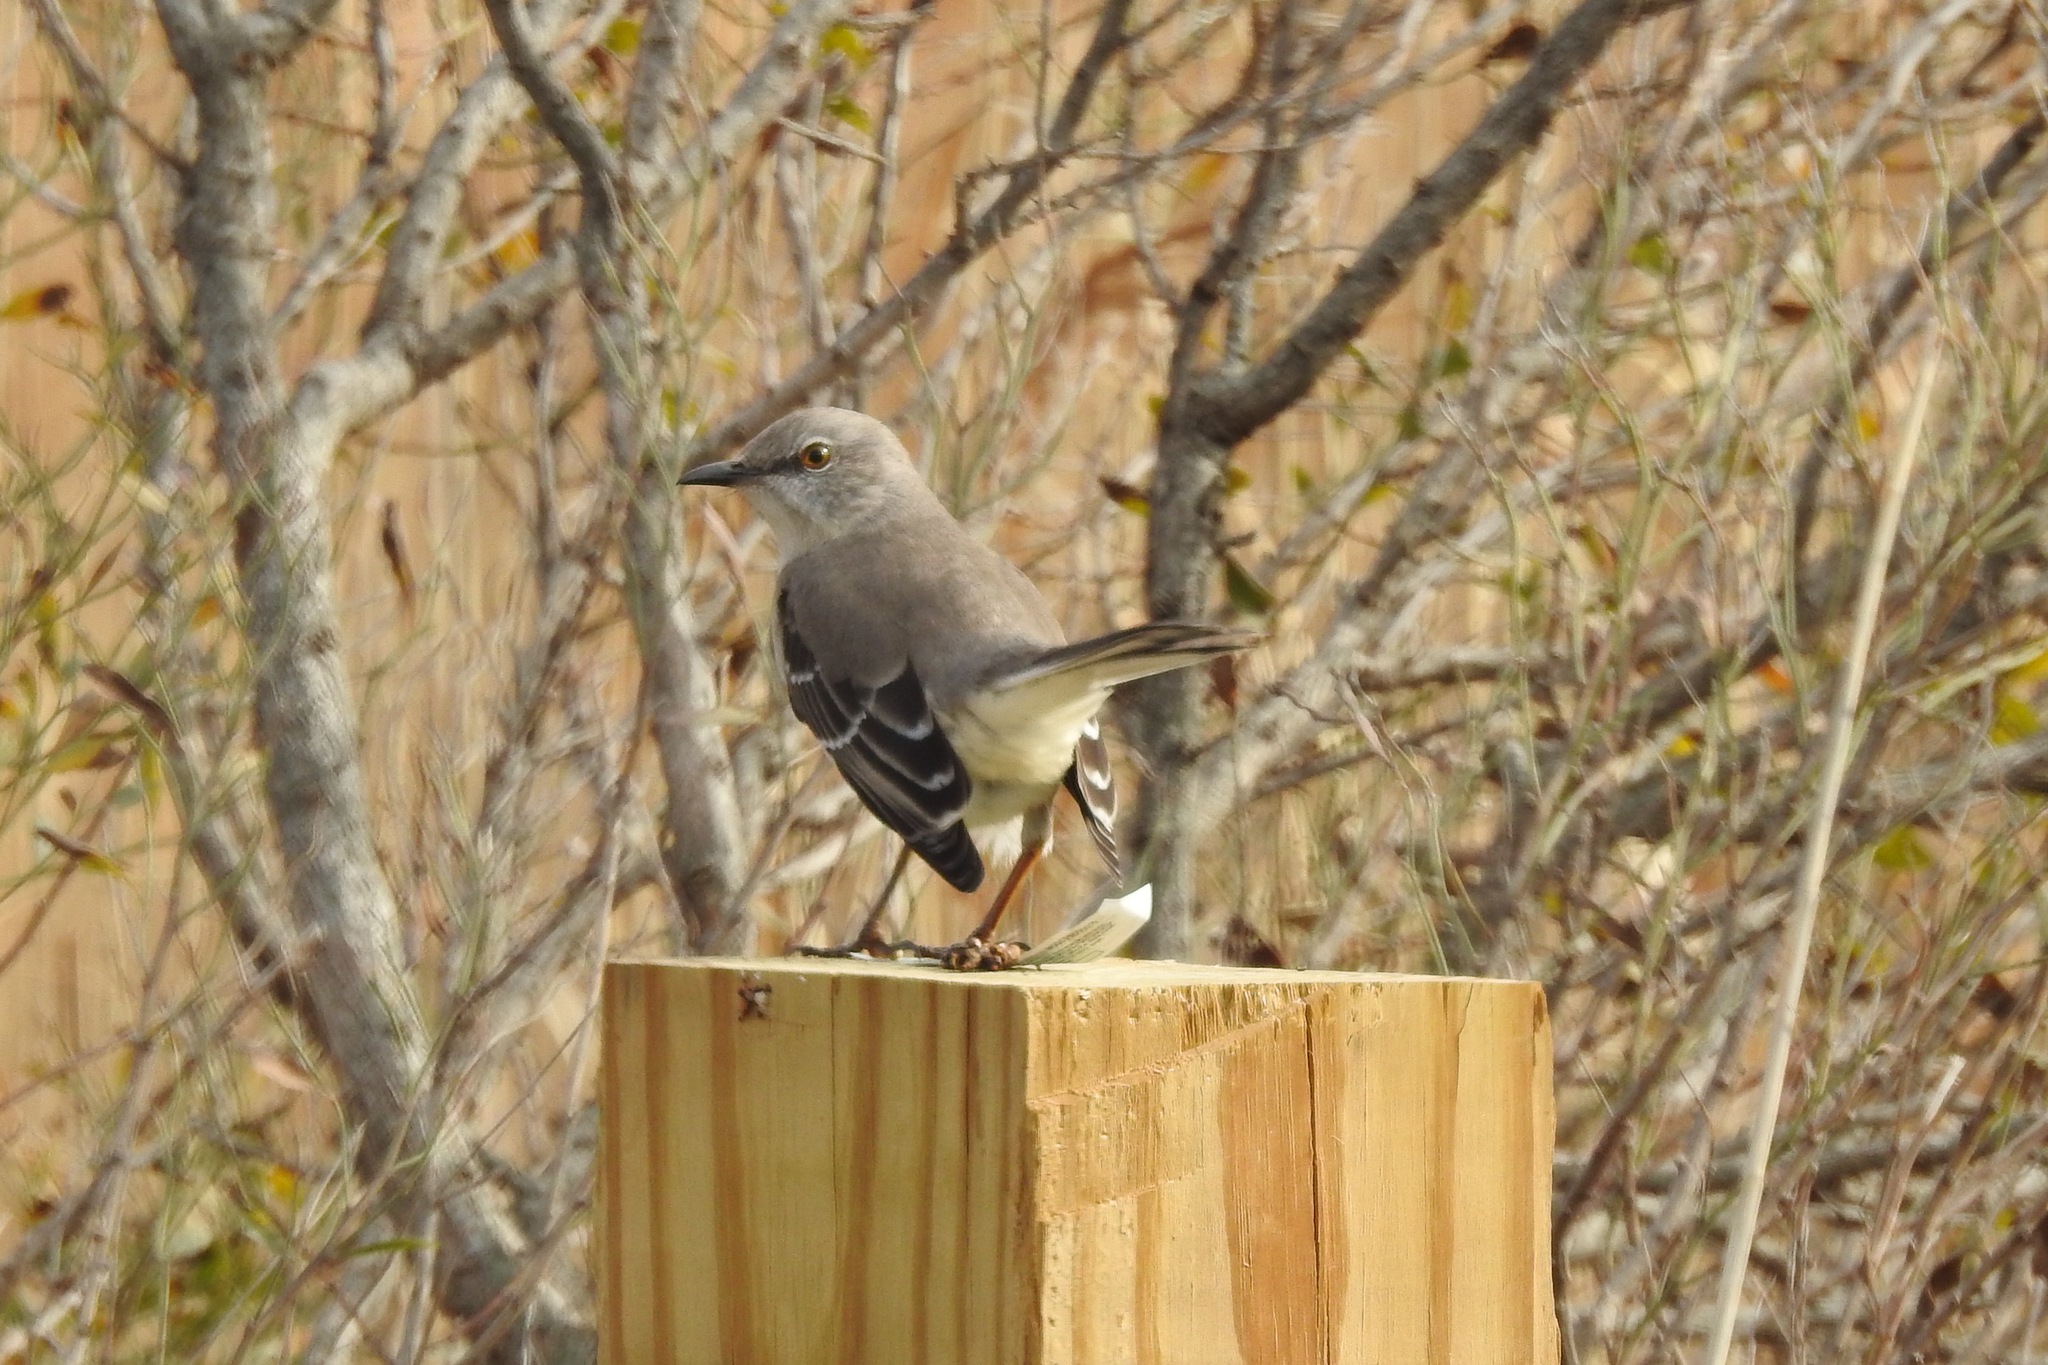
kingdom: Animalia
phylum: Chordata
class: Aves
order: Passeriformes
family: Mimidae
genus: Mimus
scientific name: Mimus polyglottos
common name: Northern mockingbird
